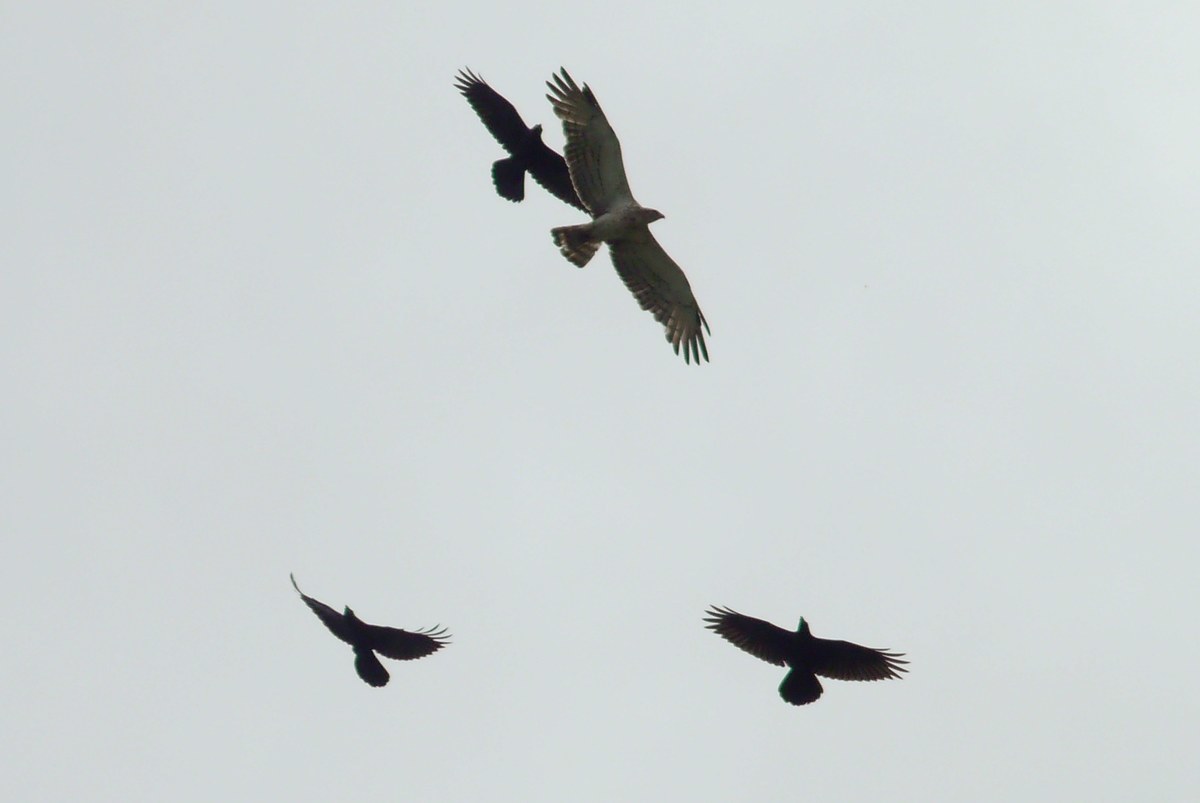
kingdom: Animalia
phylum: Chordata
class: Aves
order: Accipitriformes
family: Accipitridae
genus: Circaetus
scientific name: Circaetus gallicus
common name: Short-toed snake eagle
